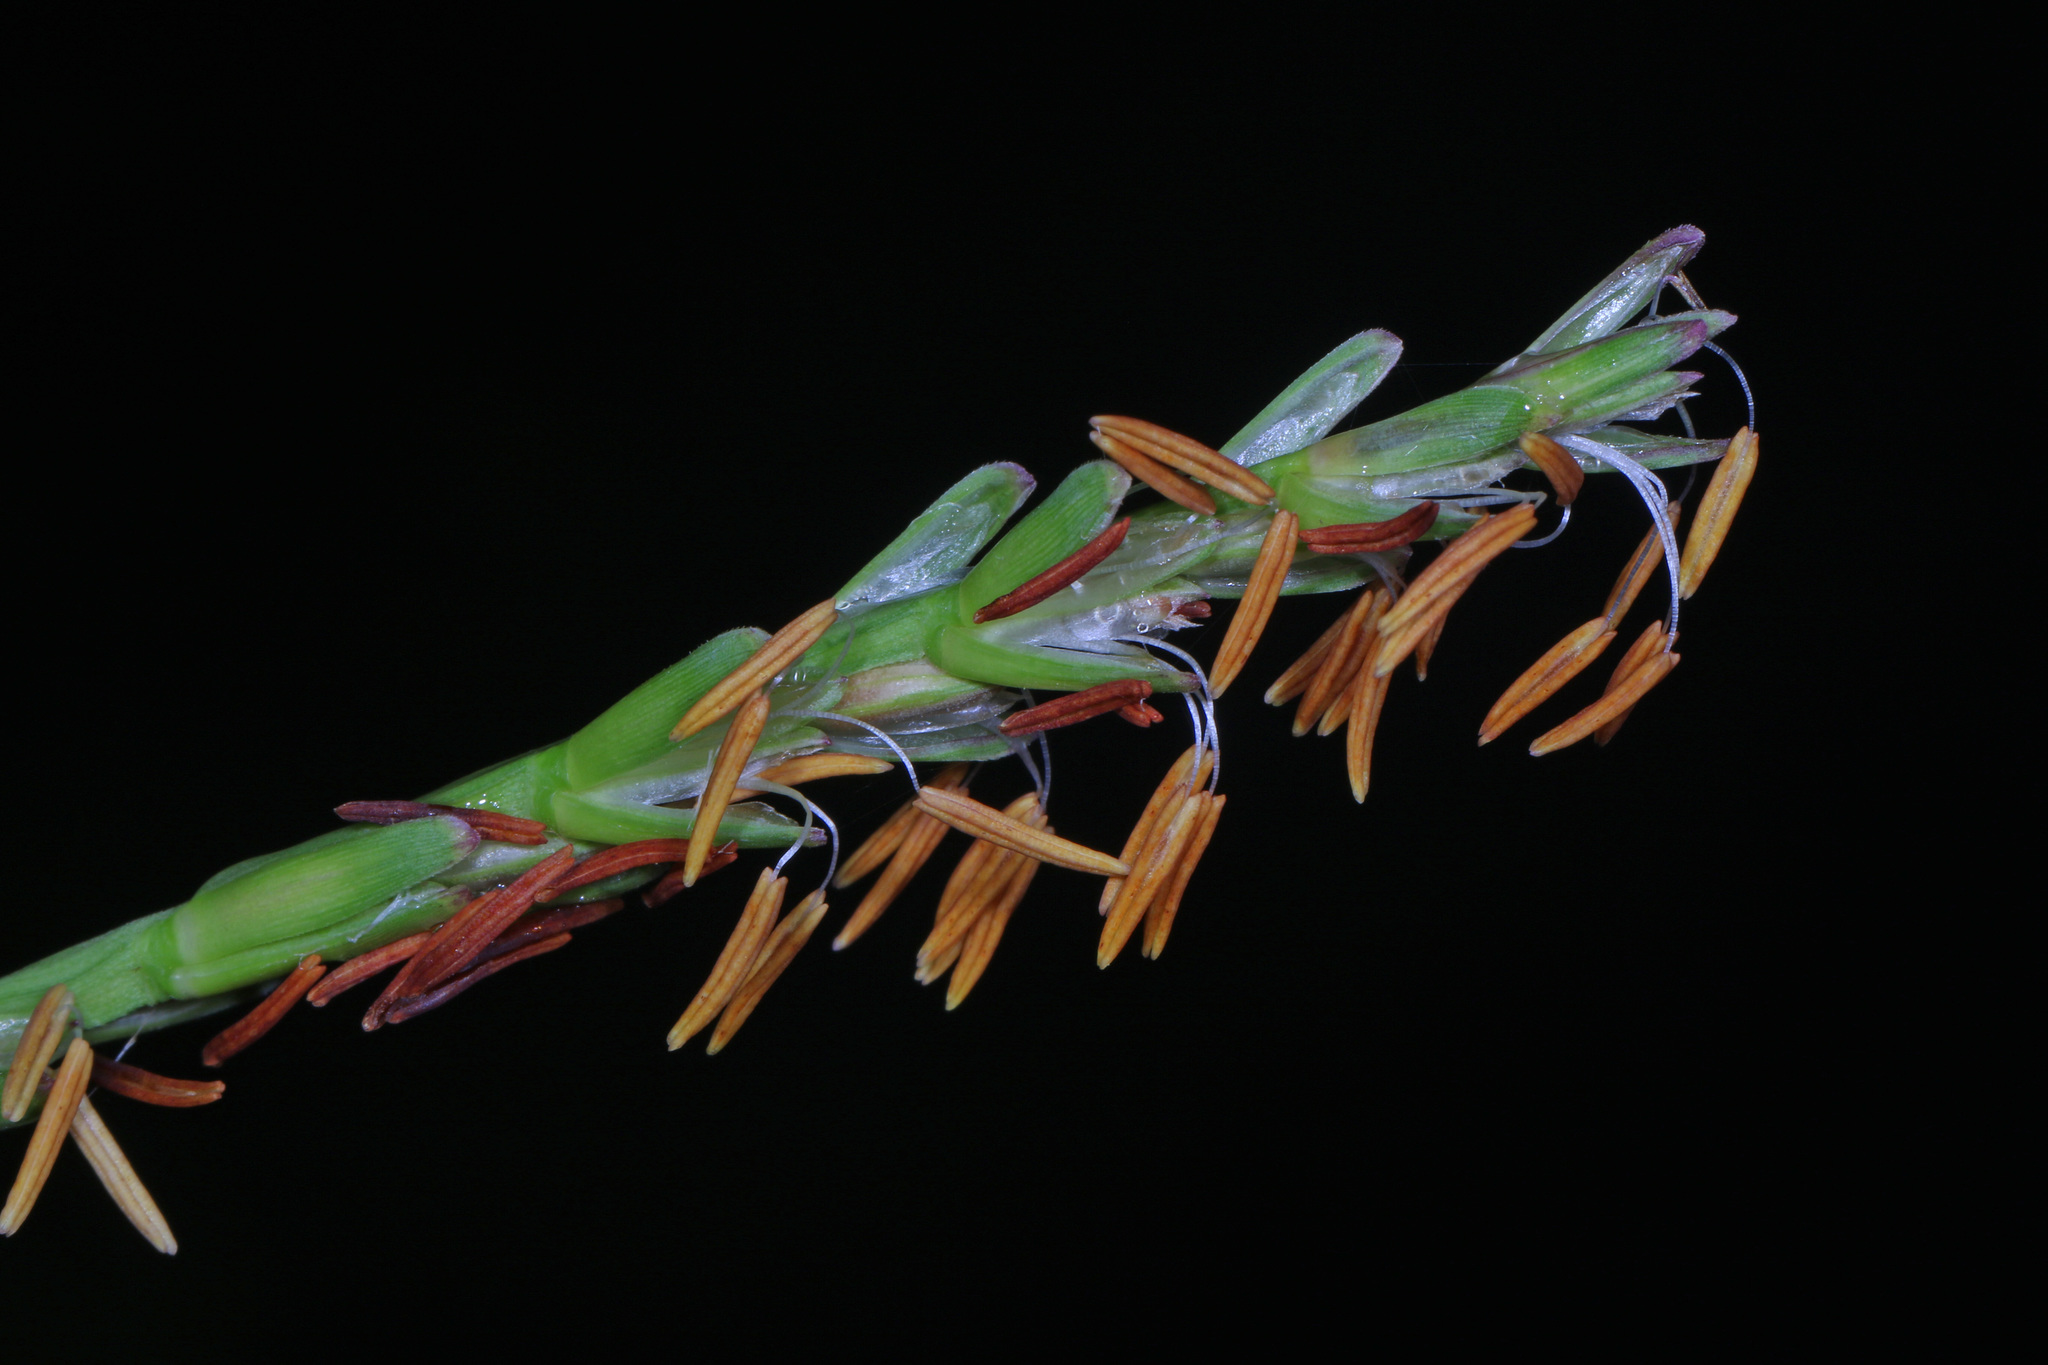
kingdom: Plantae
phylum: Tracheophyta
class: Liliopsida
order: Poales
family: Poaceae
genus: Tripsacum
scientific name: Tripsacum dactyloides
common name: Buffalo-grass
